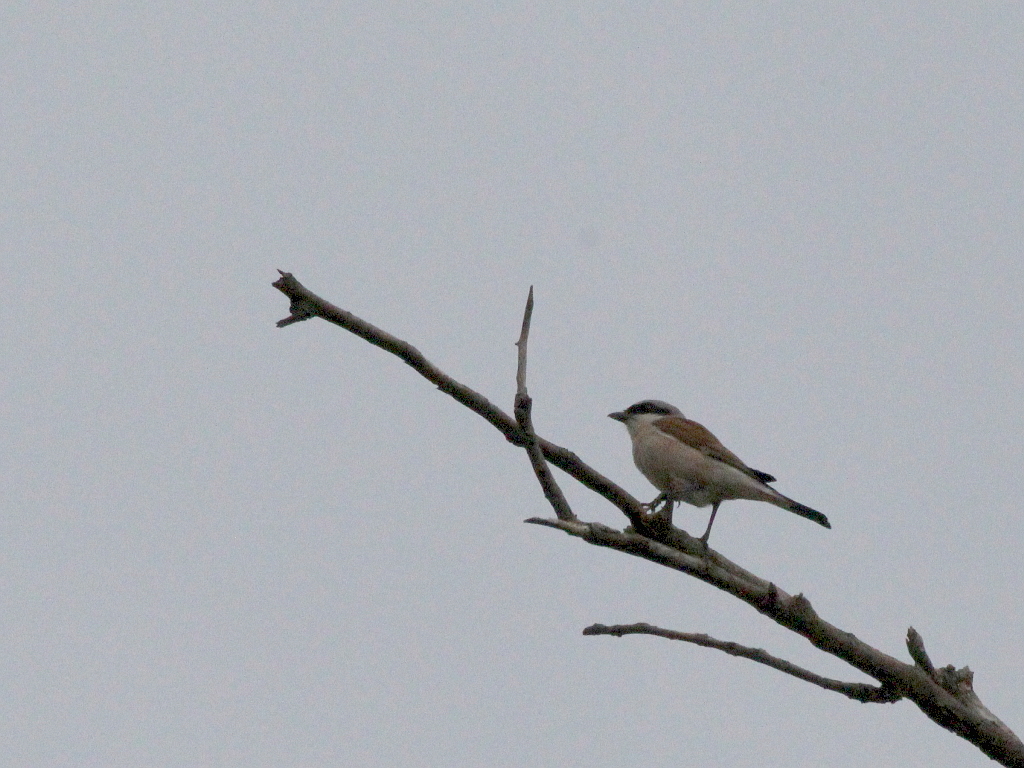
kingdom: Animalia
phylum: Chordata
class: Aves
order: Passeriformes
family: Laniidae
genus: Lanius
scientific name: Lanius collurio
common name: Red-backed shrike
